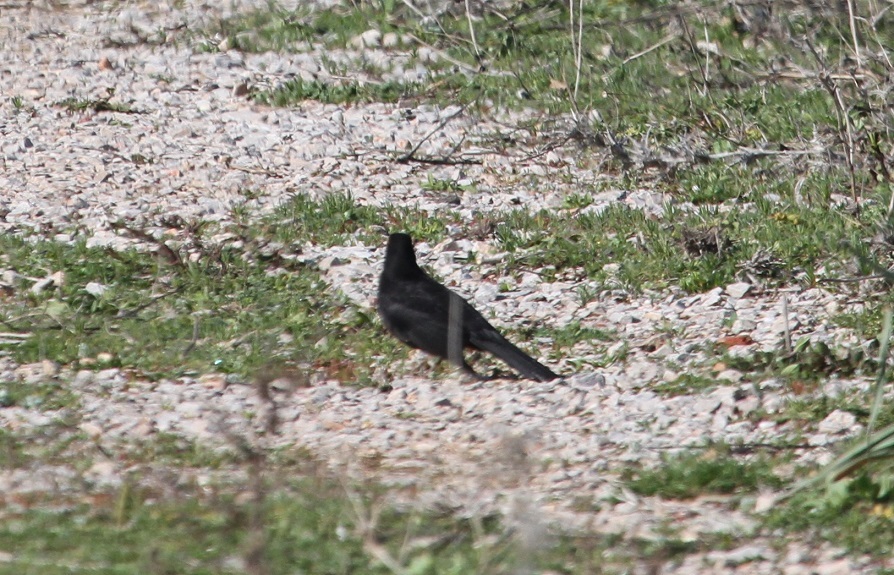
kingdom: Animalia
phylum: Chordata
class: Aves
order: Passeriformes
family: Turdidae
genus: Turdus
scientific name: Turdus merula
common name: Common blackbird
